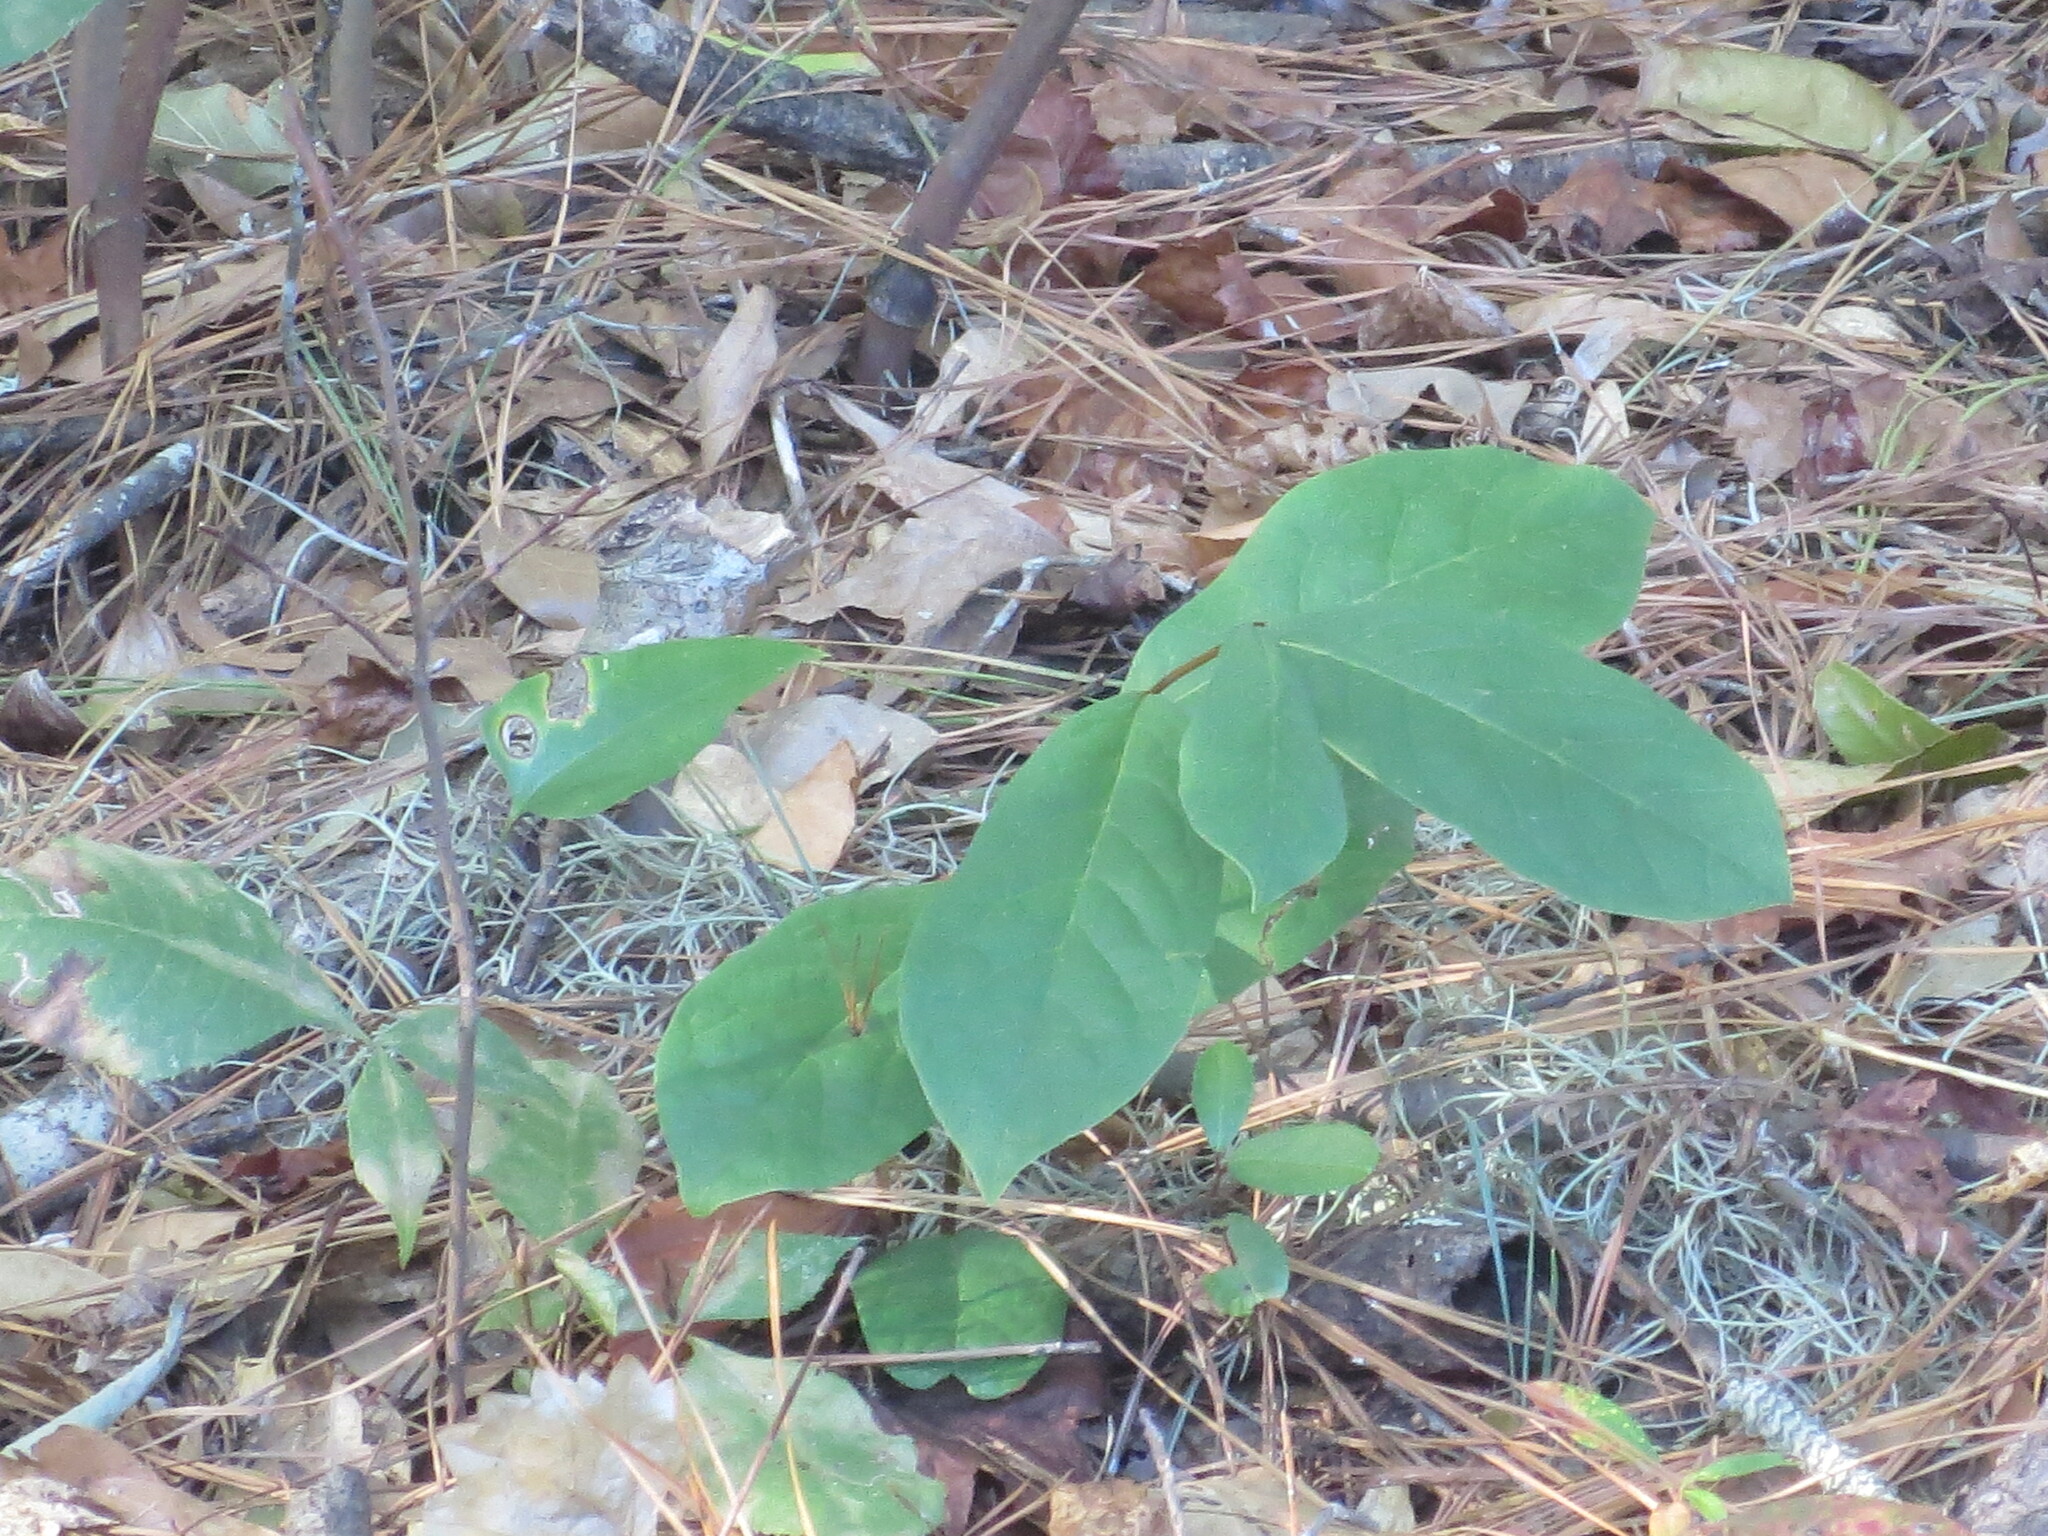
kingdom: Plantae
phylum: Tracheophyta
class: Magnoliopsida
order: Magnoliales
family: Annonaceae
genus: Asimina
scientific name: Asimina parviflora
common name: Dwarf pawpaw
